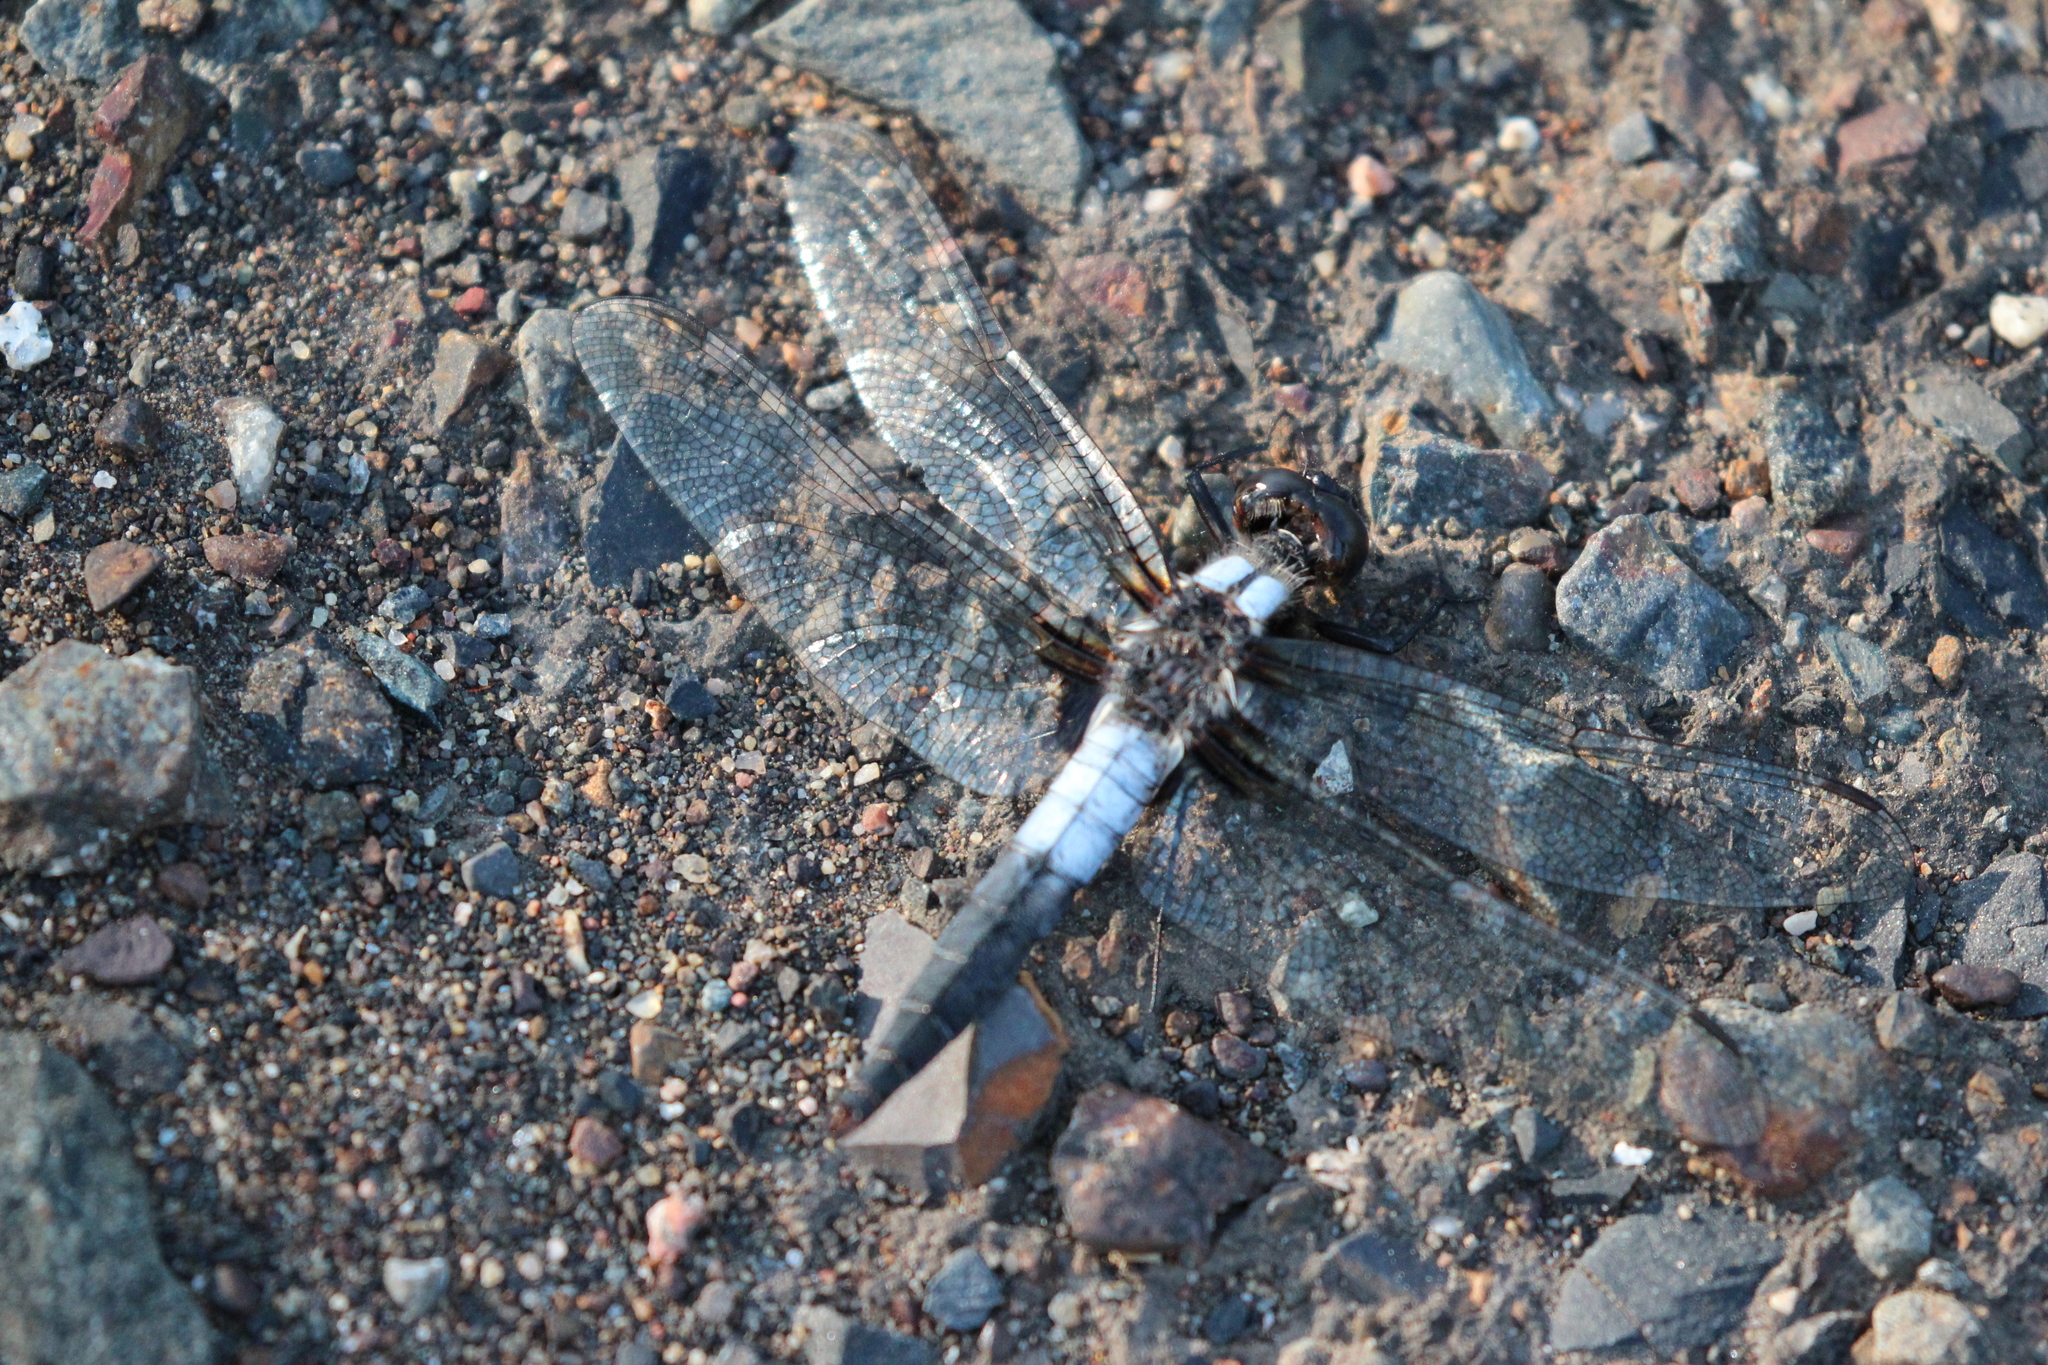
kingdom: Animalia
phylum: Arthropoda
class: Insecta
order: Odonata
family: Libellulidae
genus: Ladona
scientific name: Ladona julia
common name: Chalk-fronted corporal
